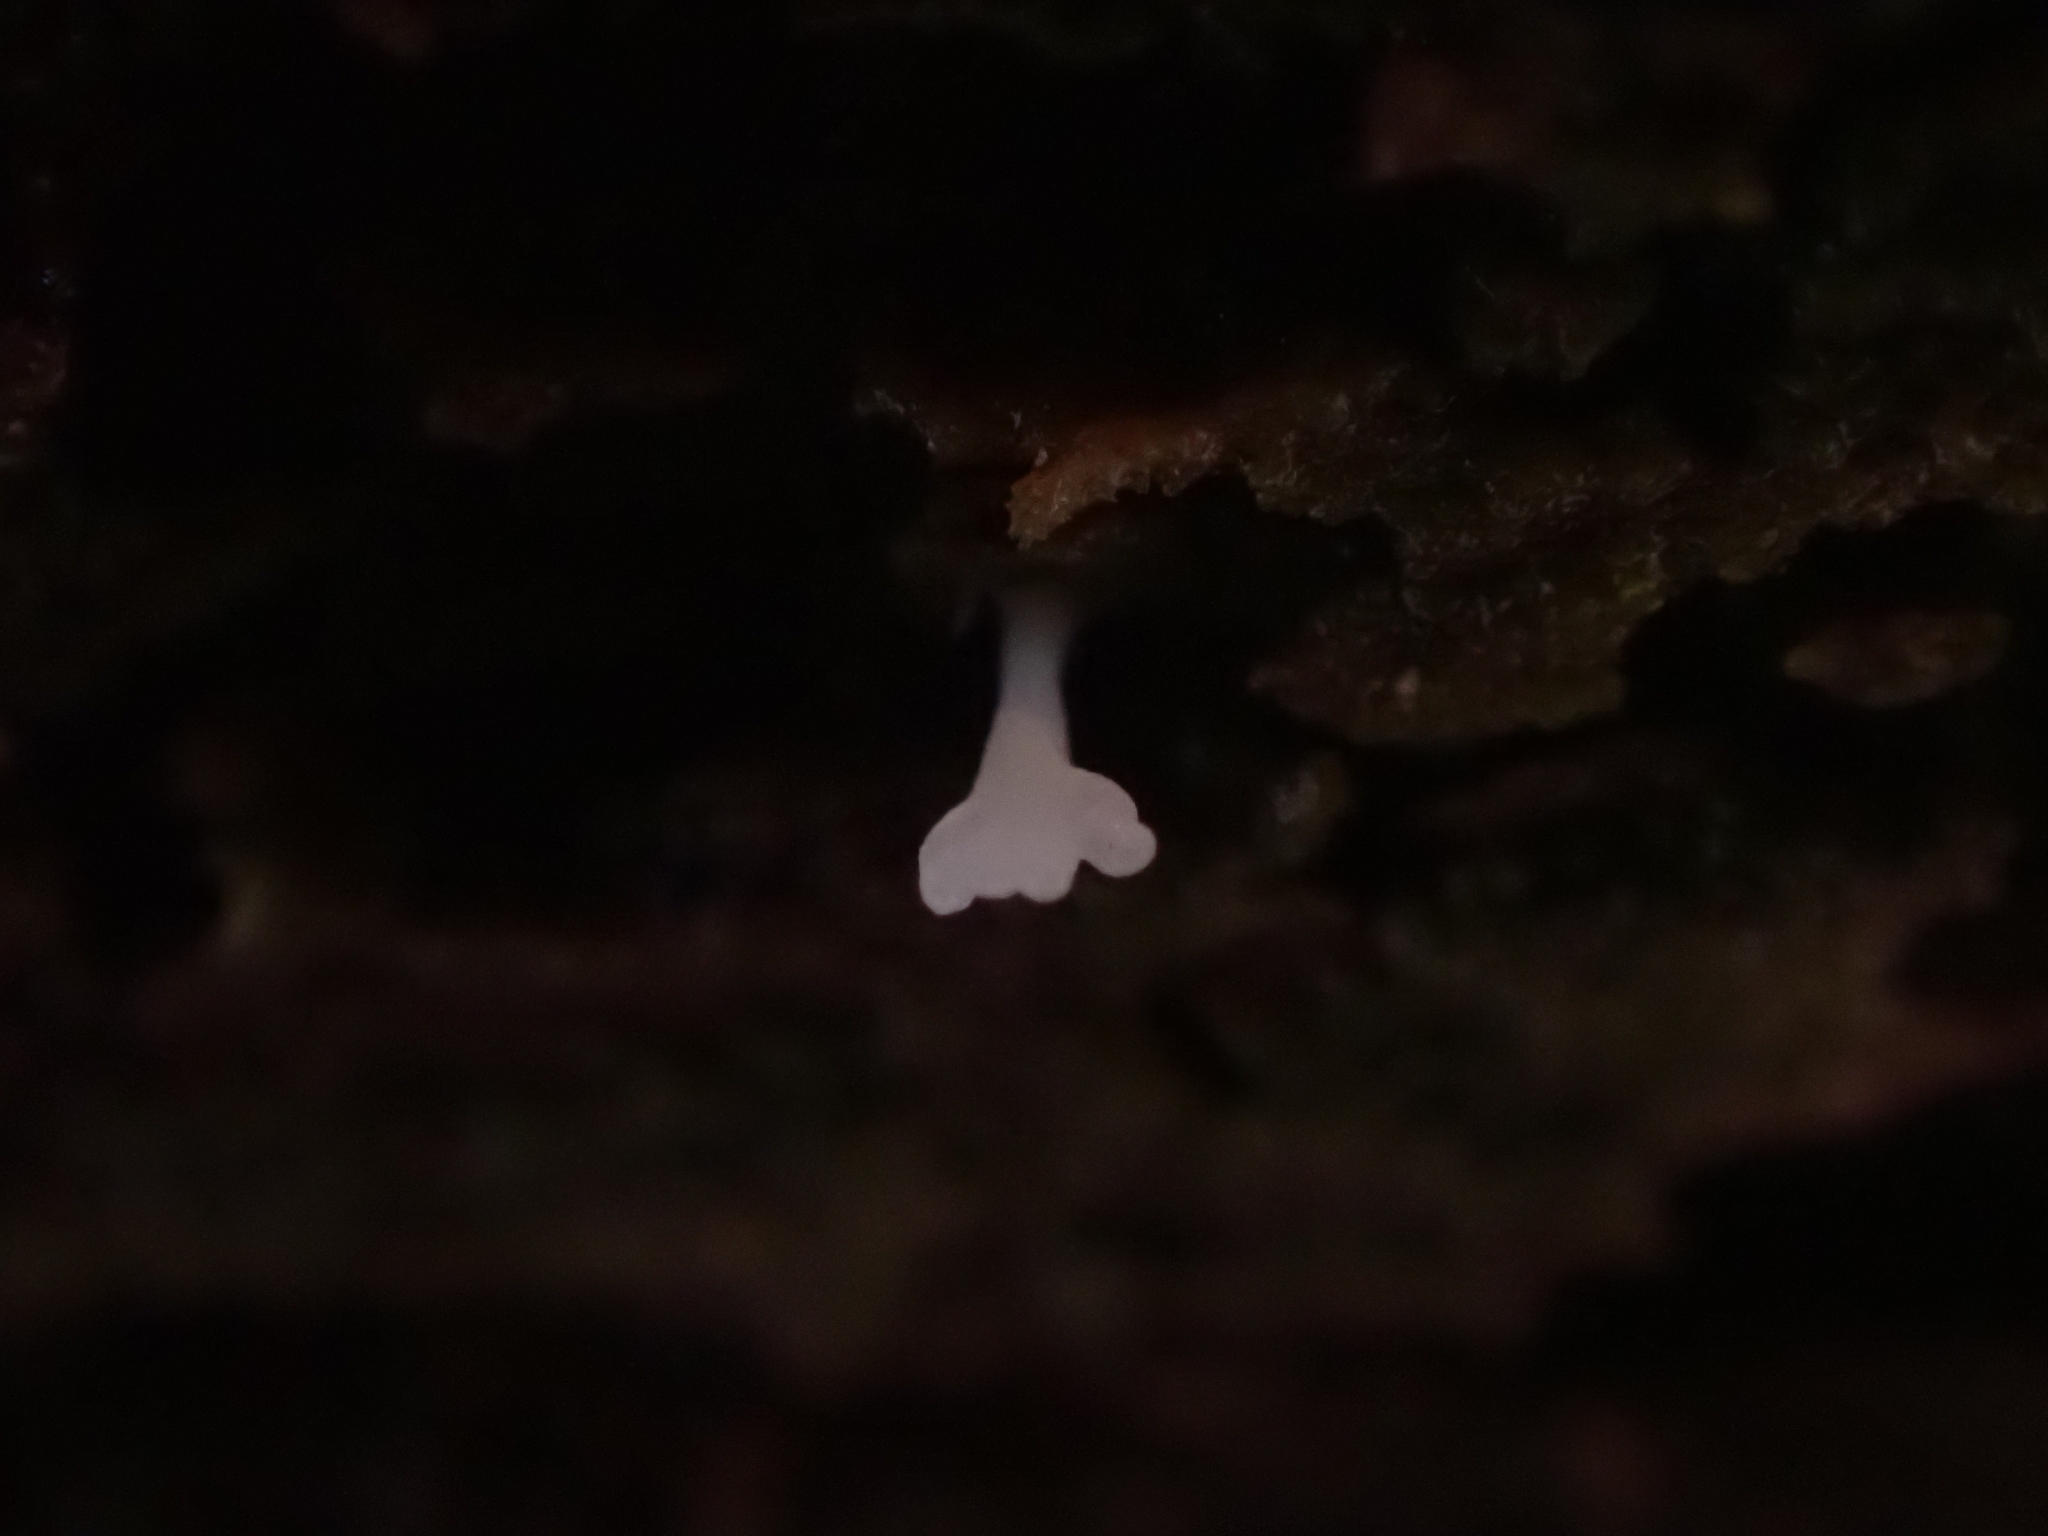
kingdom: Fungi
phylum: Basidiomycota
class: Agaricomycetes
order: Cantharellales
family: Hydnaceae
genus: Multiclavula
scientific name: Multiclavula mucida
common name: White green-algae coral
